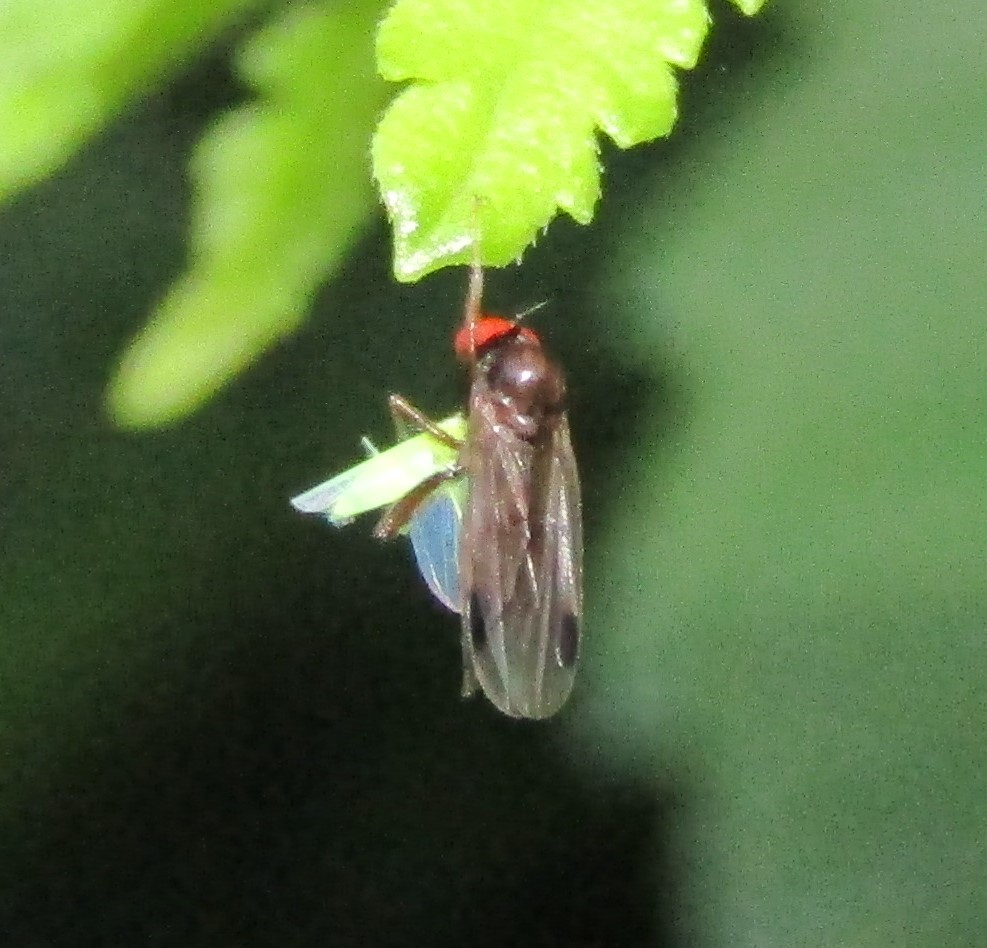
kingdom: Animalia
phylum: Arthropoda
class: Insecta
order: Diptera
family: Hybotidae
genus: Syneches
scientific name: Syneches thoracicus
